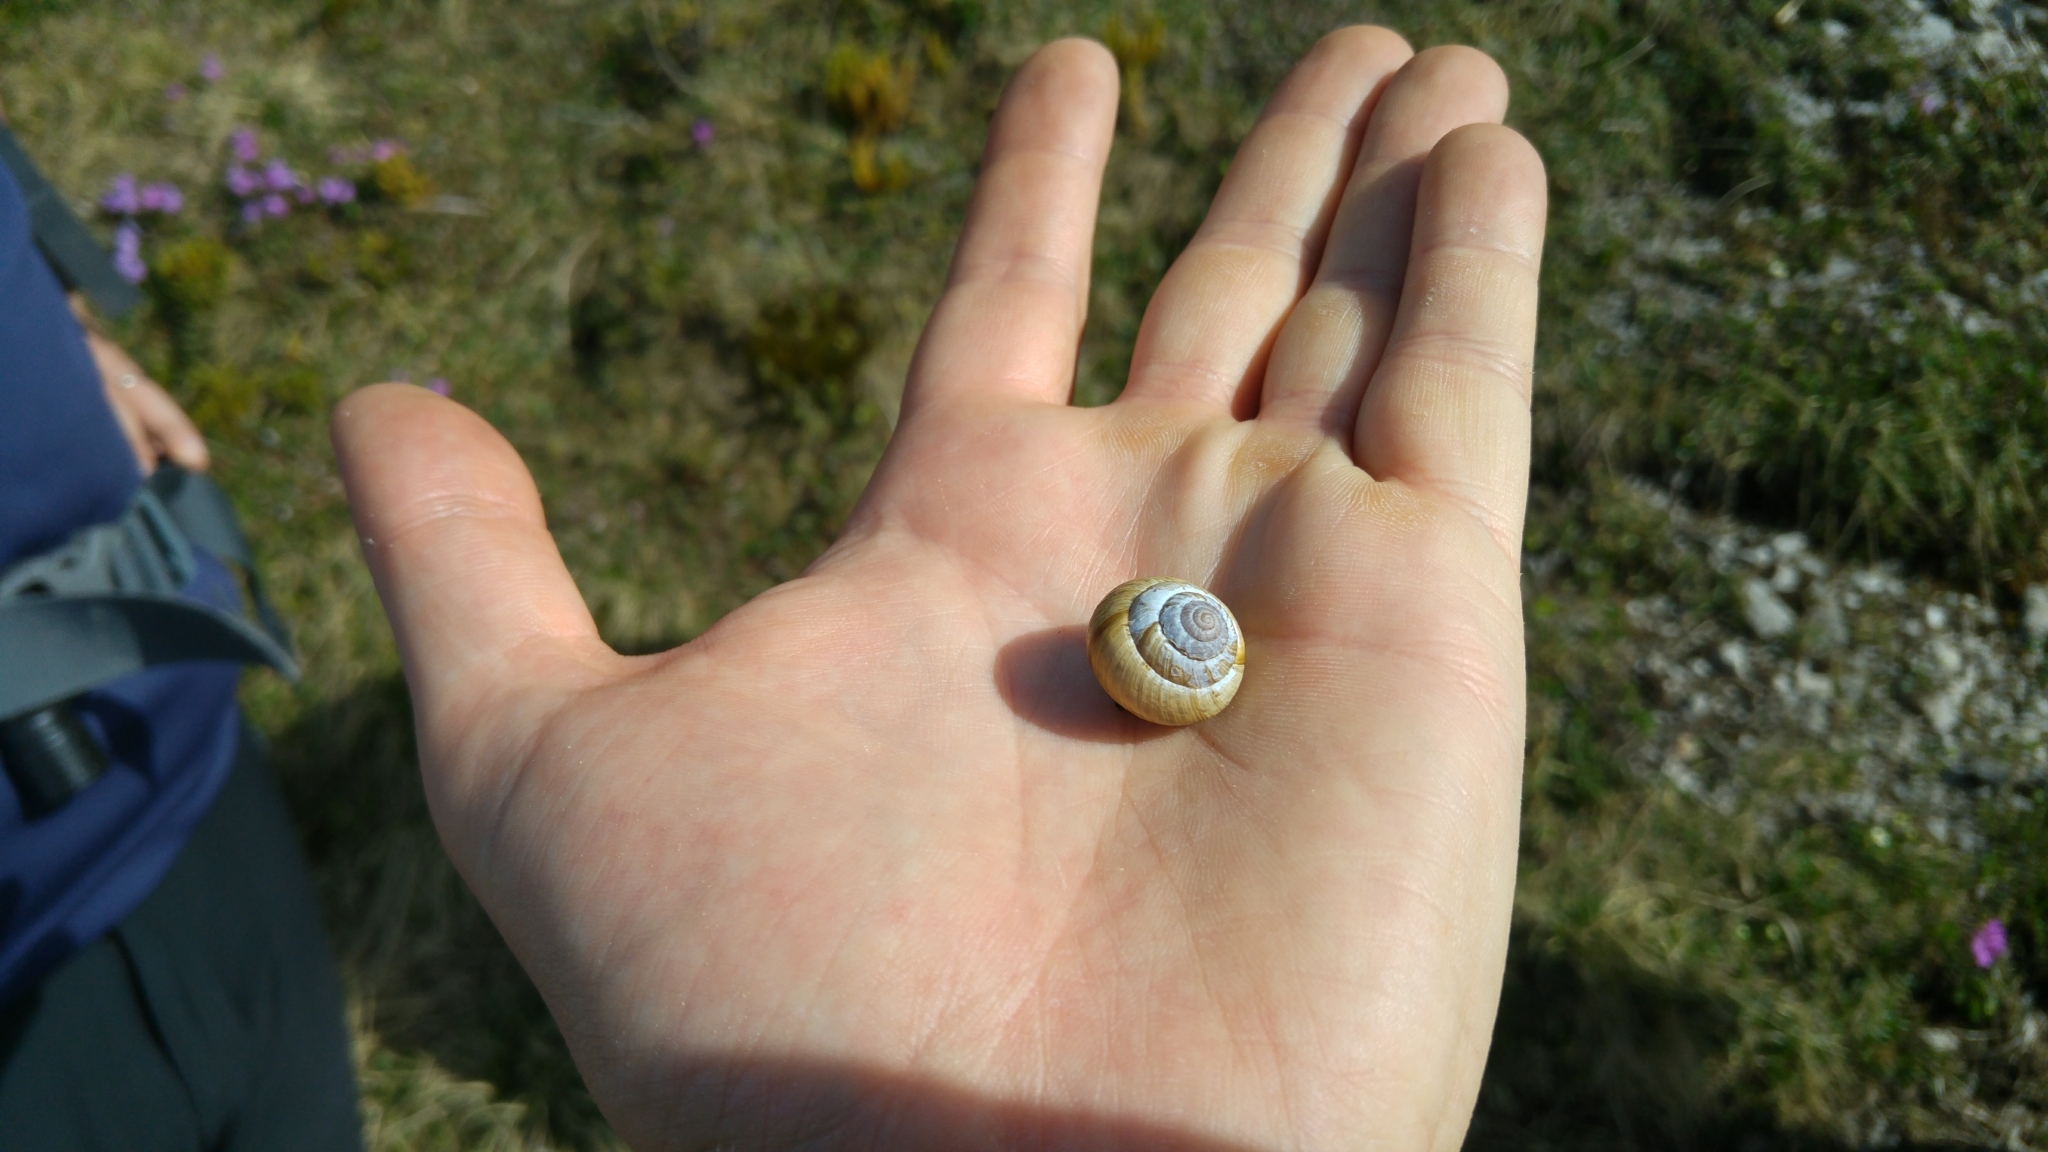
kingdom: Animalia
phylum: Mollusca
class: Gastropoda
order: Stylommatophora
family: Helicidae
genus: Arianta
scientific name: Arianta arbustorum
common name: Copse snail
